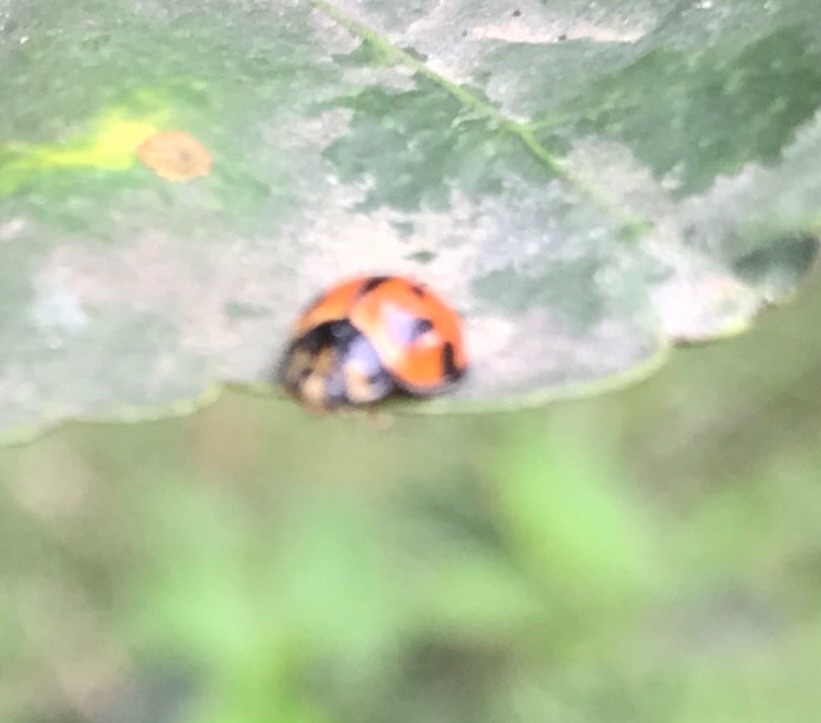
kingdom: Animalia
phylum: Arthropoda
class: Insecta
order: Coleoptera
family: Coccinellidae
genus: Coelophora
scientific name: Coelophora inaequalis
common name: Common australian lady beetle
